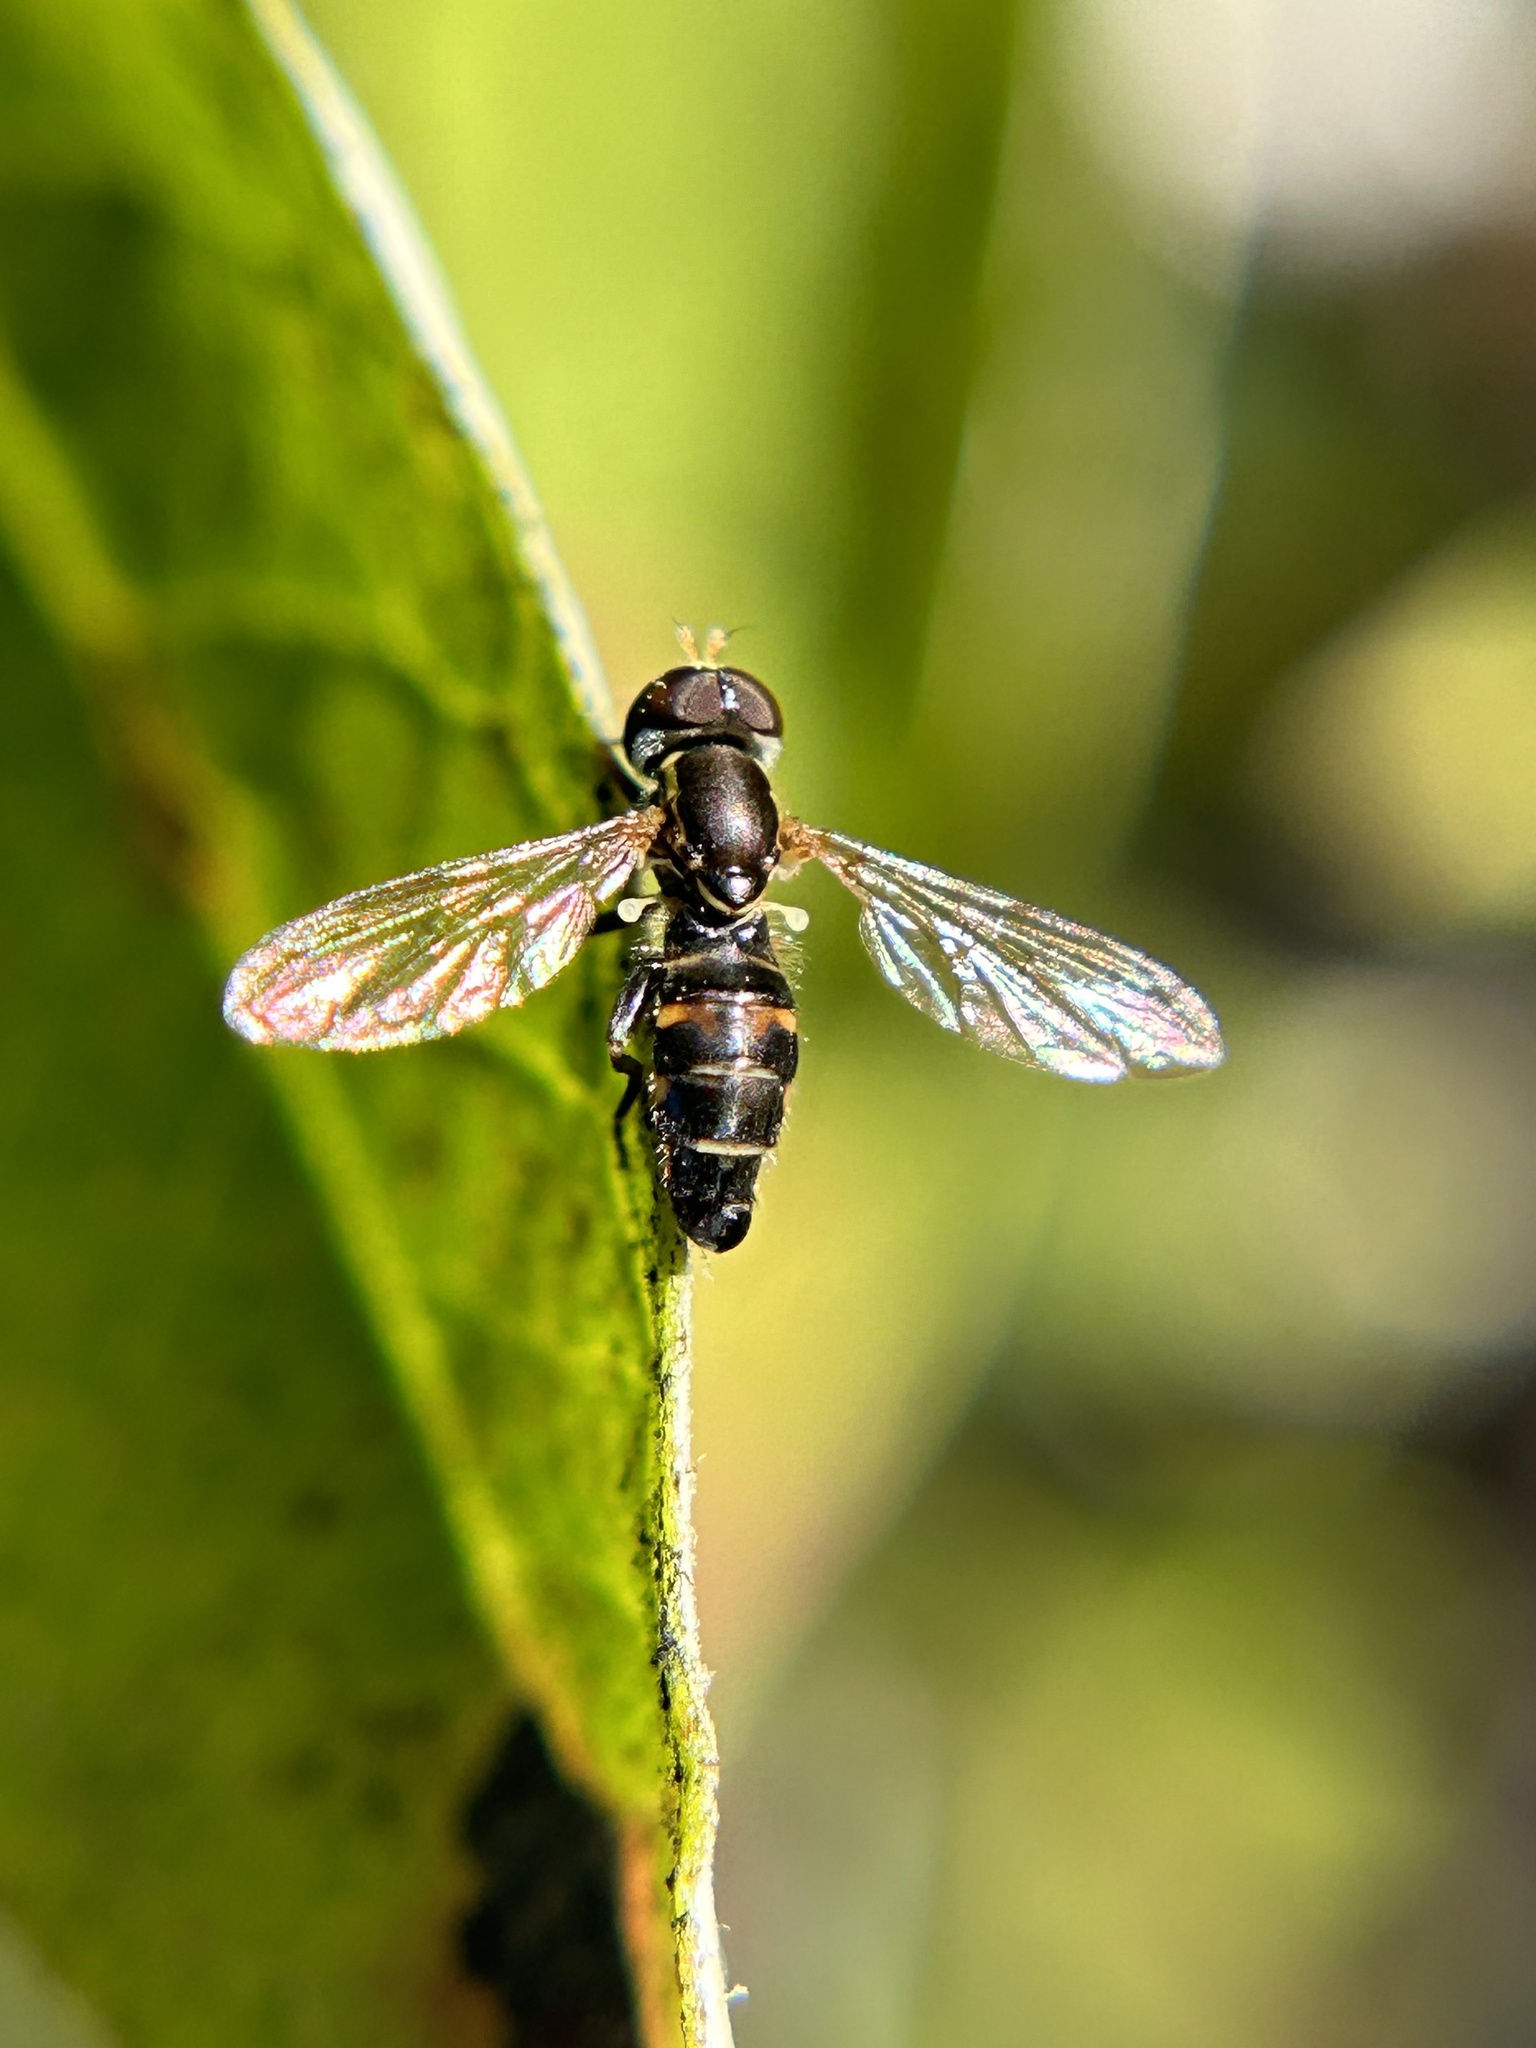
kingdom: Animalia
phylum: Arthropoda
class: Insecta
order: Diptera
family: Syrphidae
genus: Toxomerus
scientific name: Toxomerus occidentalis
